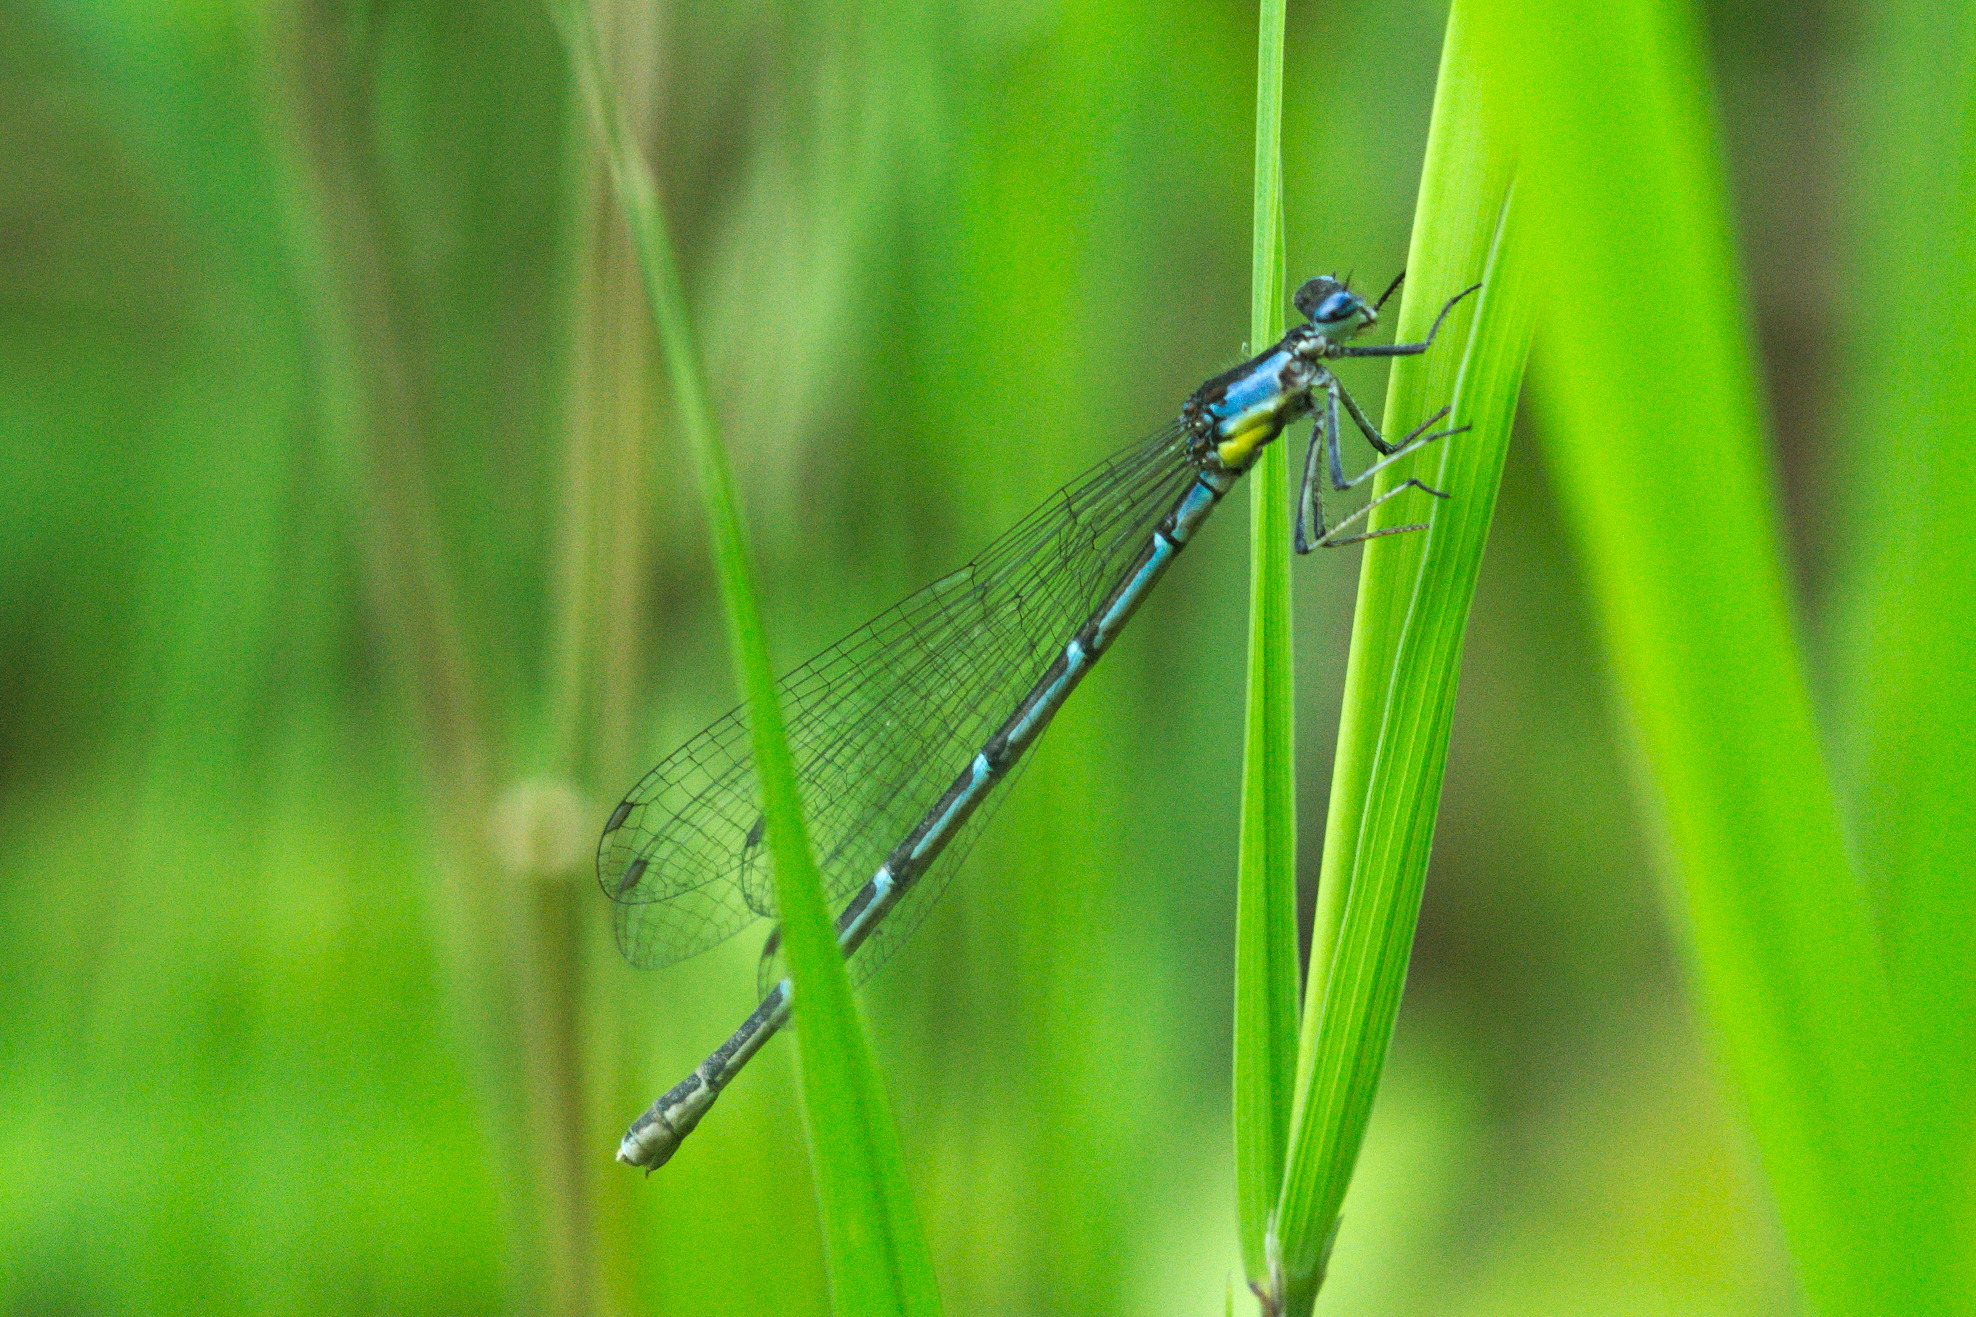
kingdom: Animalia
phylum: Arthropoda
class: Insecta
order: Odonata
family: Coenagrionidae
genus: Chromagrion
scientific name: Chromagrion conditum
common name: Aurora damsel
